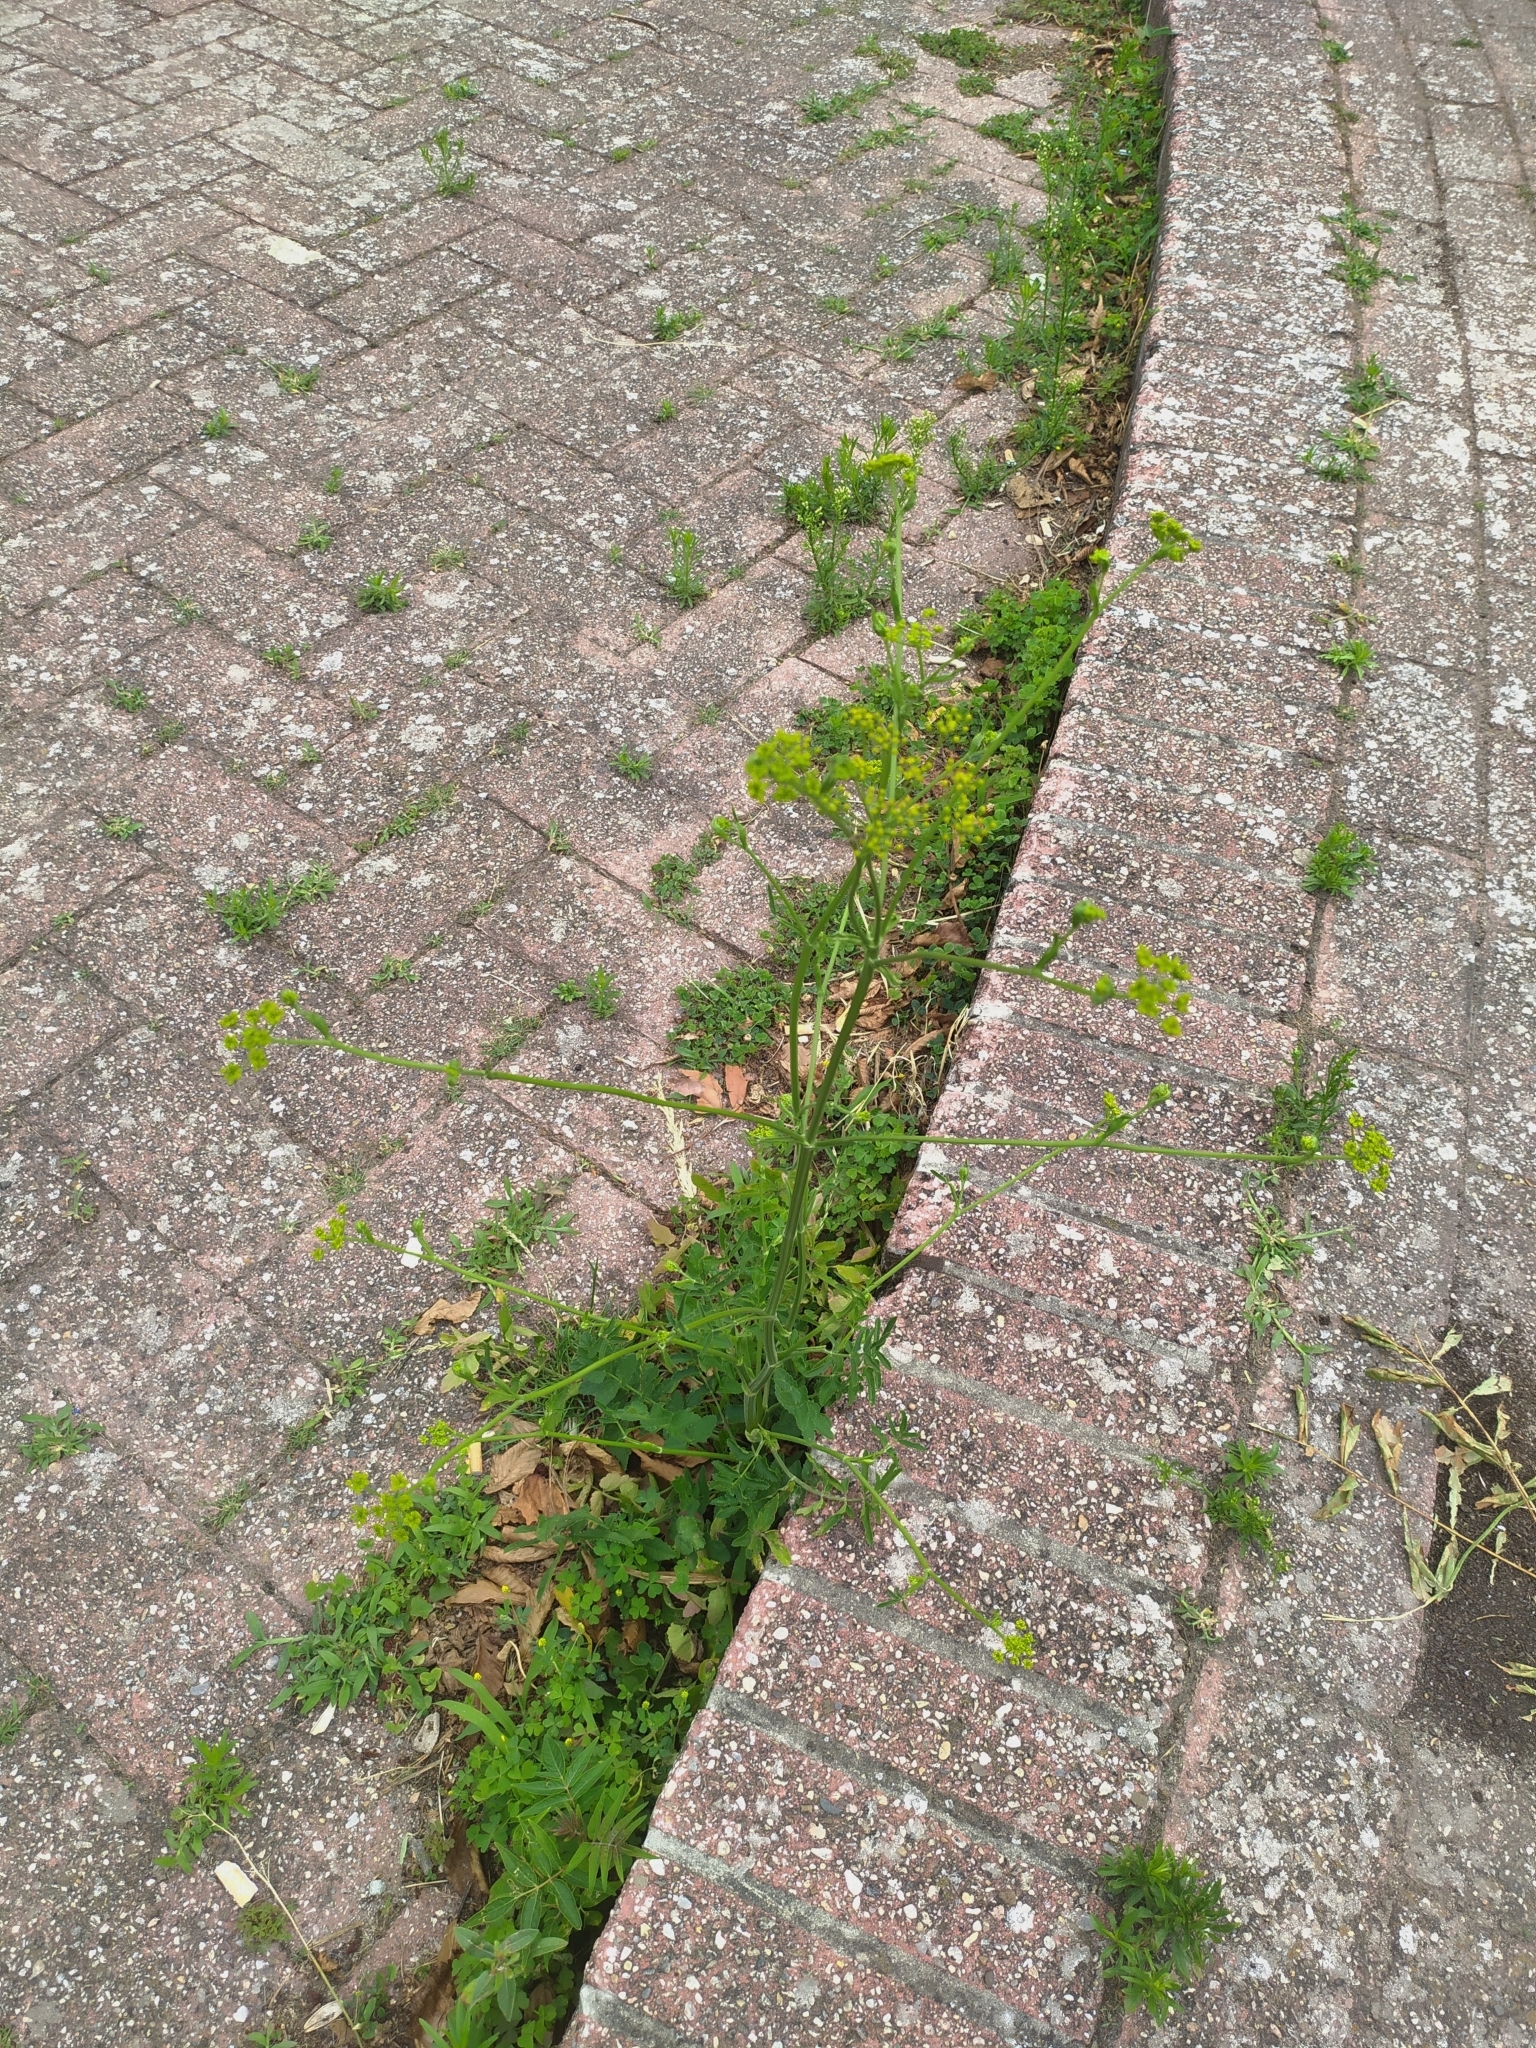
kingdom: Plantae
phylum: Tracheophyta
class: Magnoliopsida
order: Apiales
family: Apiaceae
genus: Pastinaca
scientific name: Pastinaca sativa
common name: Wild parsnip
